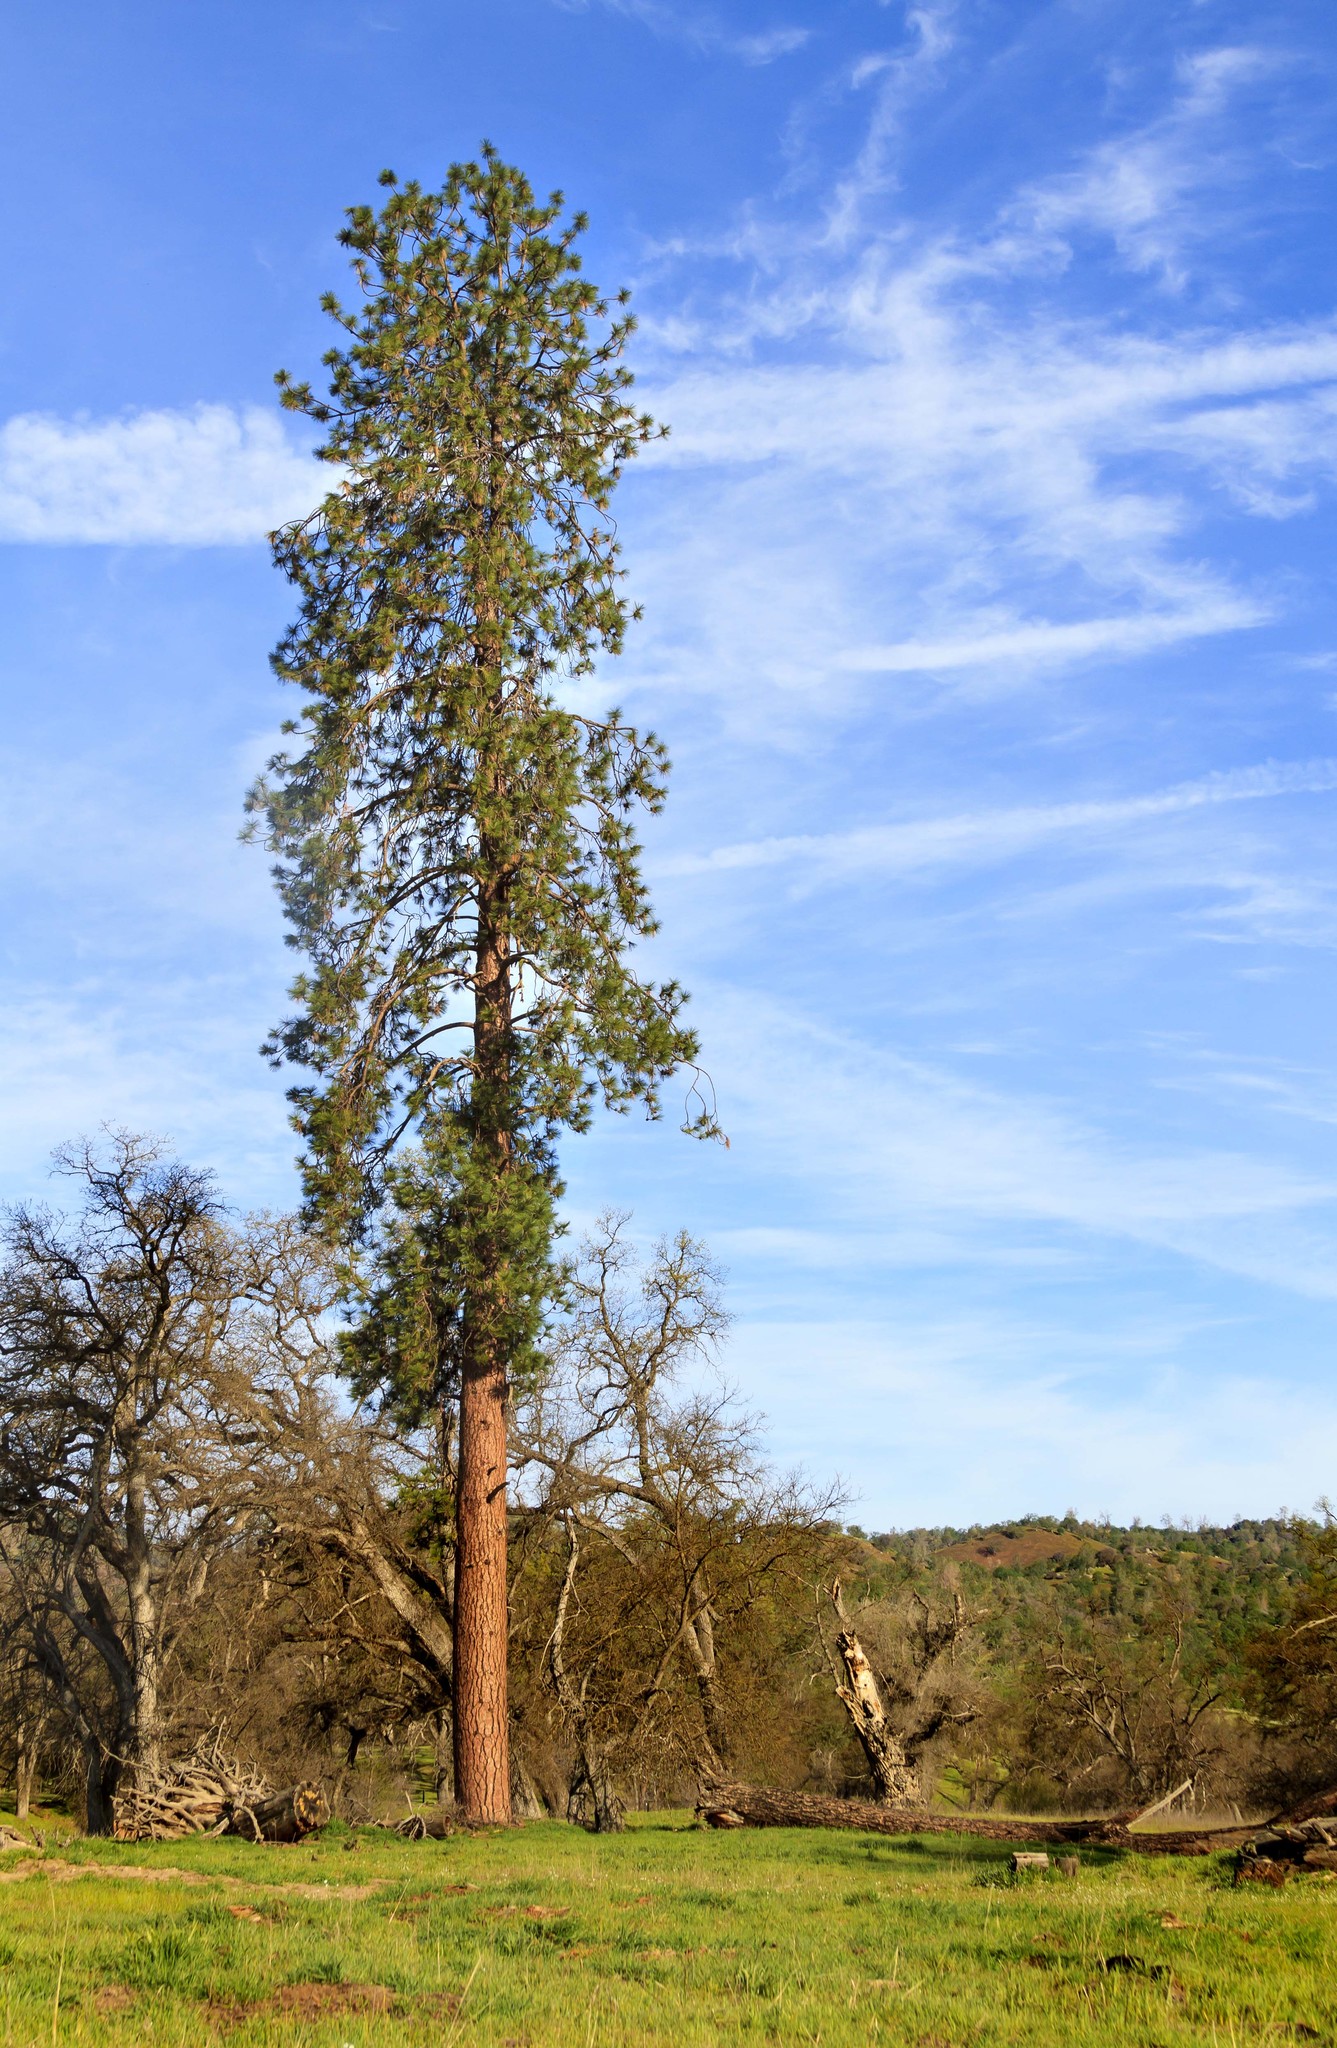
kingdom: Plantae
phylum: Tracheophyta
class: Pinopsida
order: Pinales
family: Pinaceae
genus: Pinus
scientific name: Pinus ponderosa
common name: Western yellow-pine
